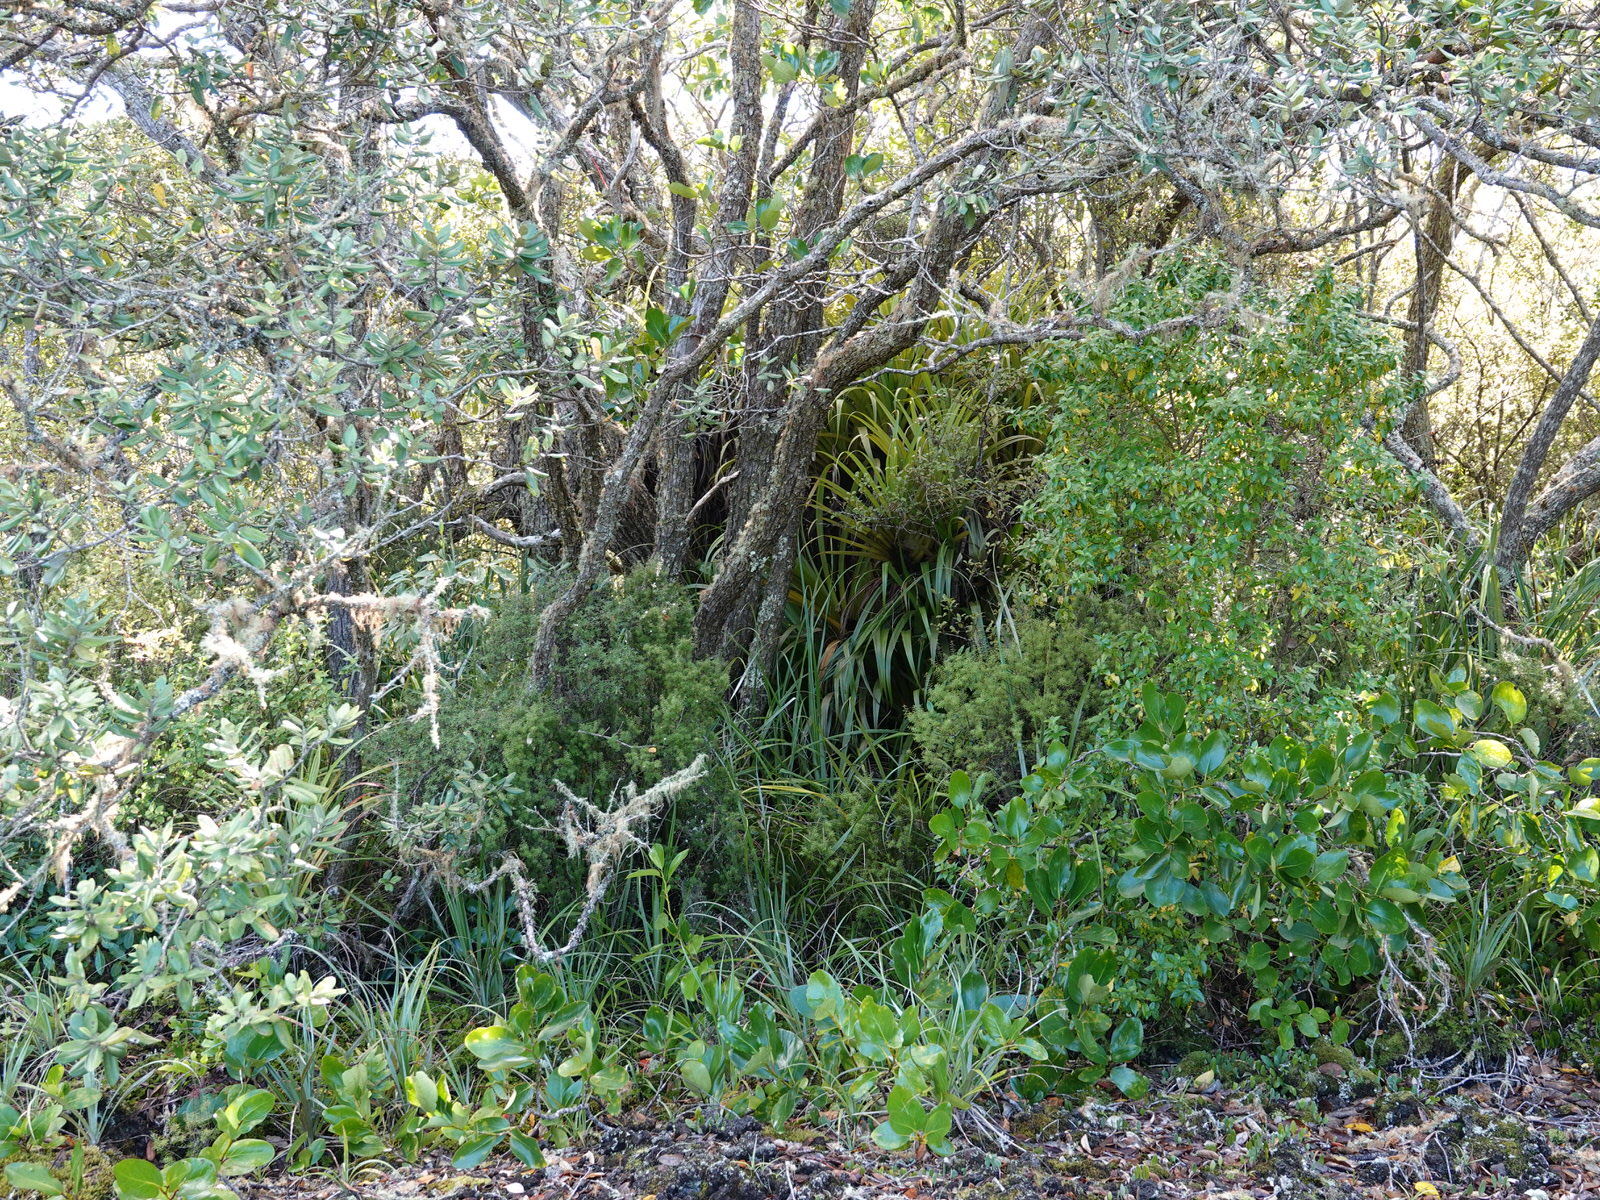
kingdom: Plantae
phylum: Tracheophyta
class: Liliopsida
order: Asparagales
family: Asteliaceae
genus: Astelia
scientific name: Astelia hastata
